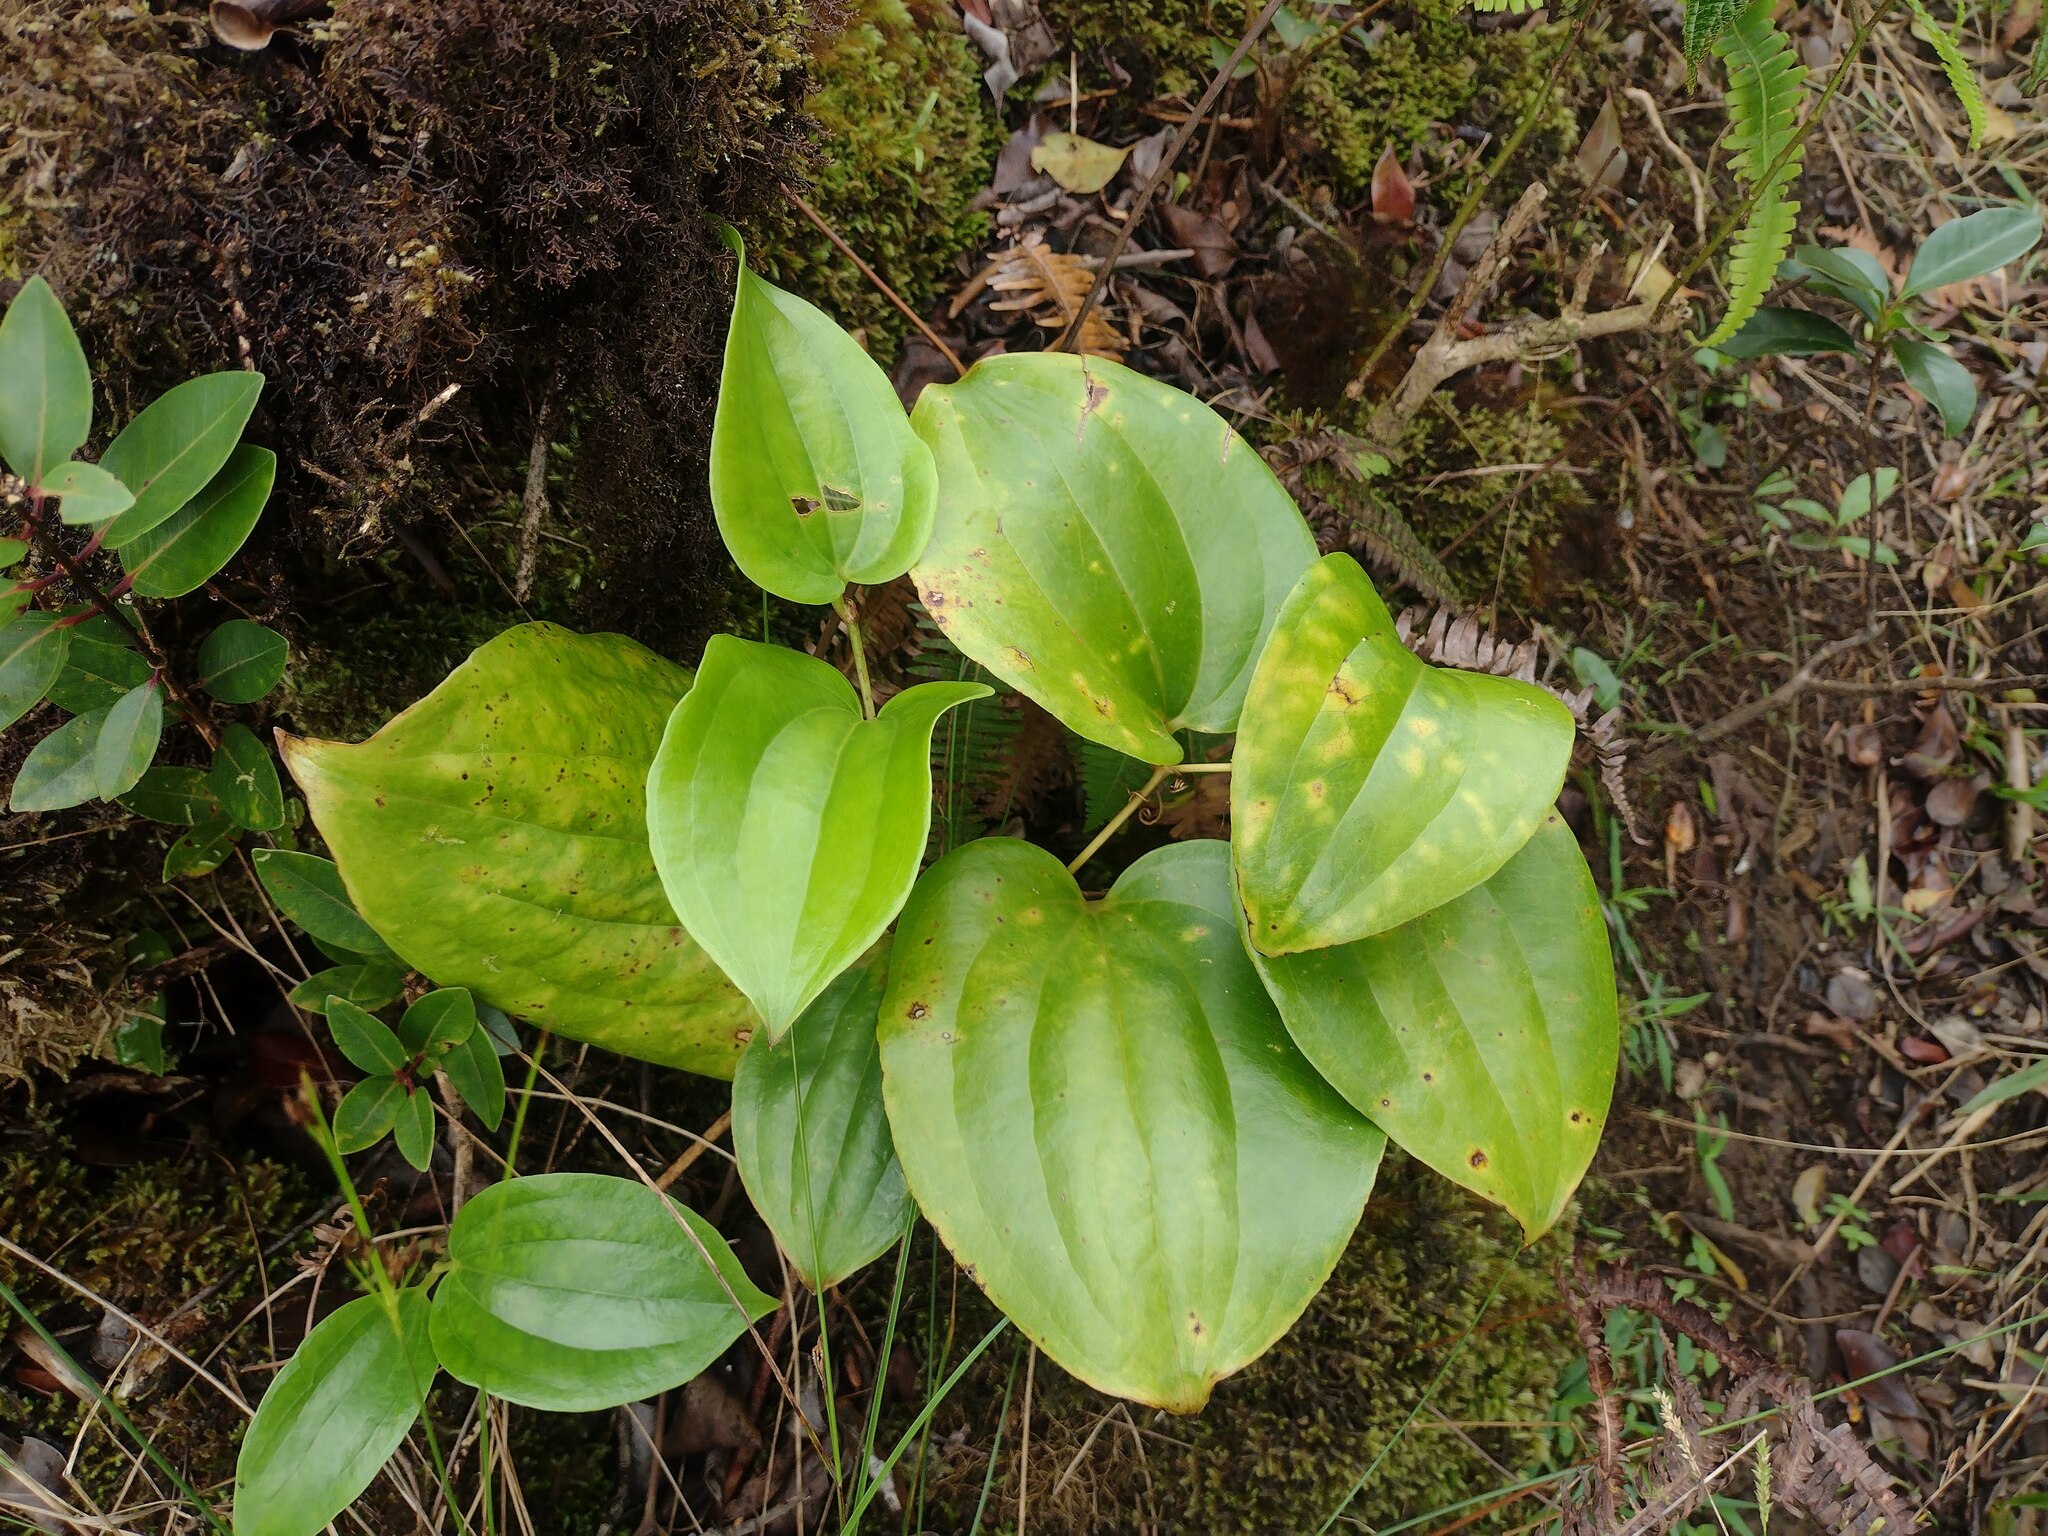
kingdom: Plantae
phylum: Tracheophyta
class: Liliopsida
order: Liliales
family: Smilacaceae
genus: Smilax
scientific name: Smilax melastomifolia
